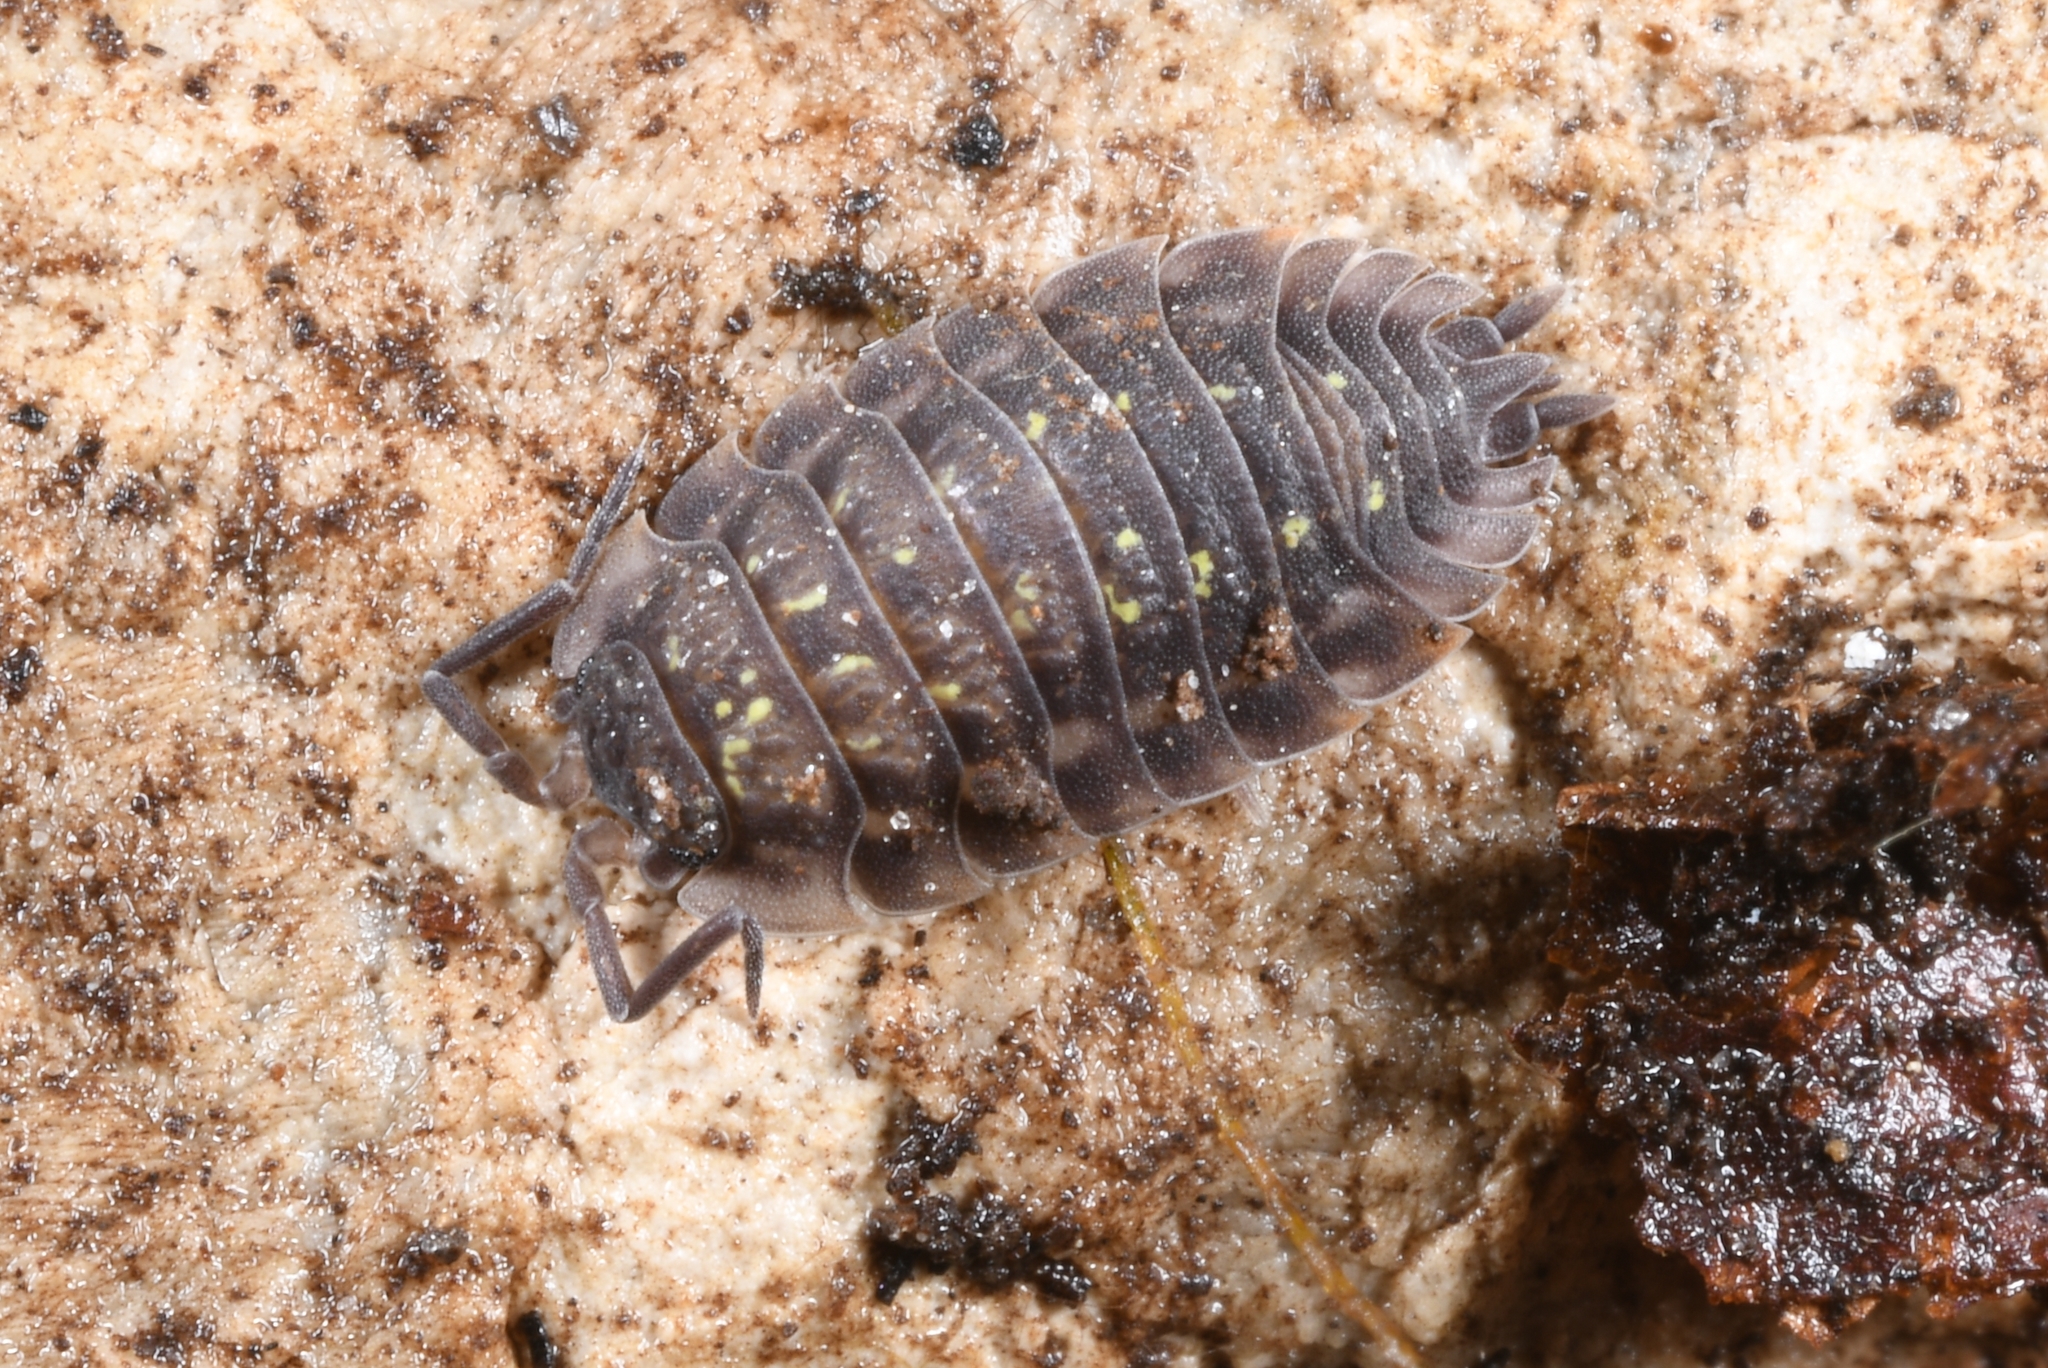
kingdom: Animalia
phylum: Arthropoda
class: Malacostraca
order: Isopoda
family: Oniscidae
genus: Oniscus
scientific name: Oniscus asellus
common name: Common shiny woodlouse
